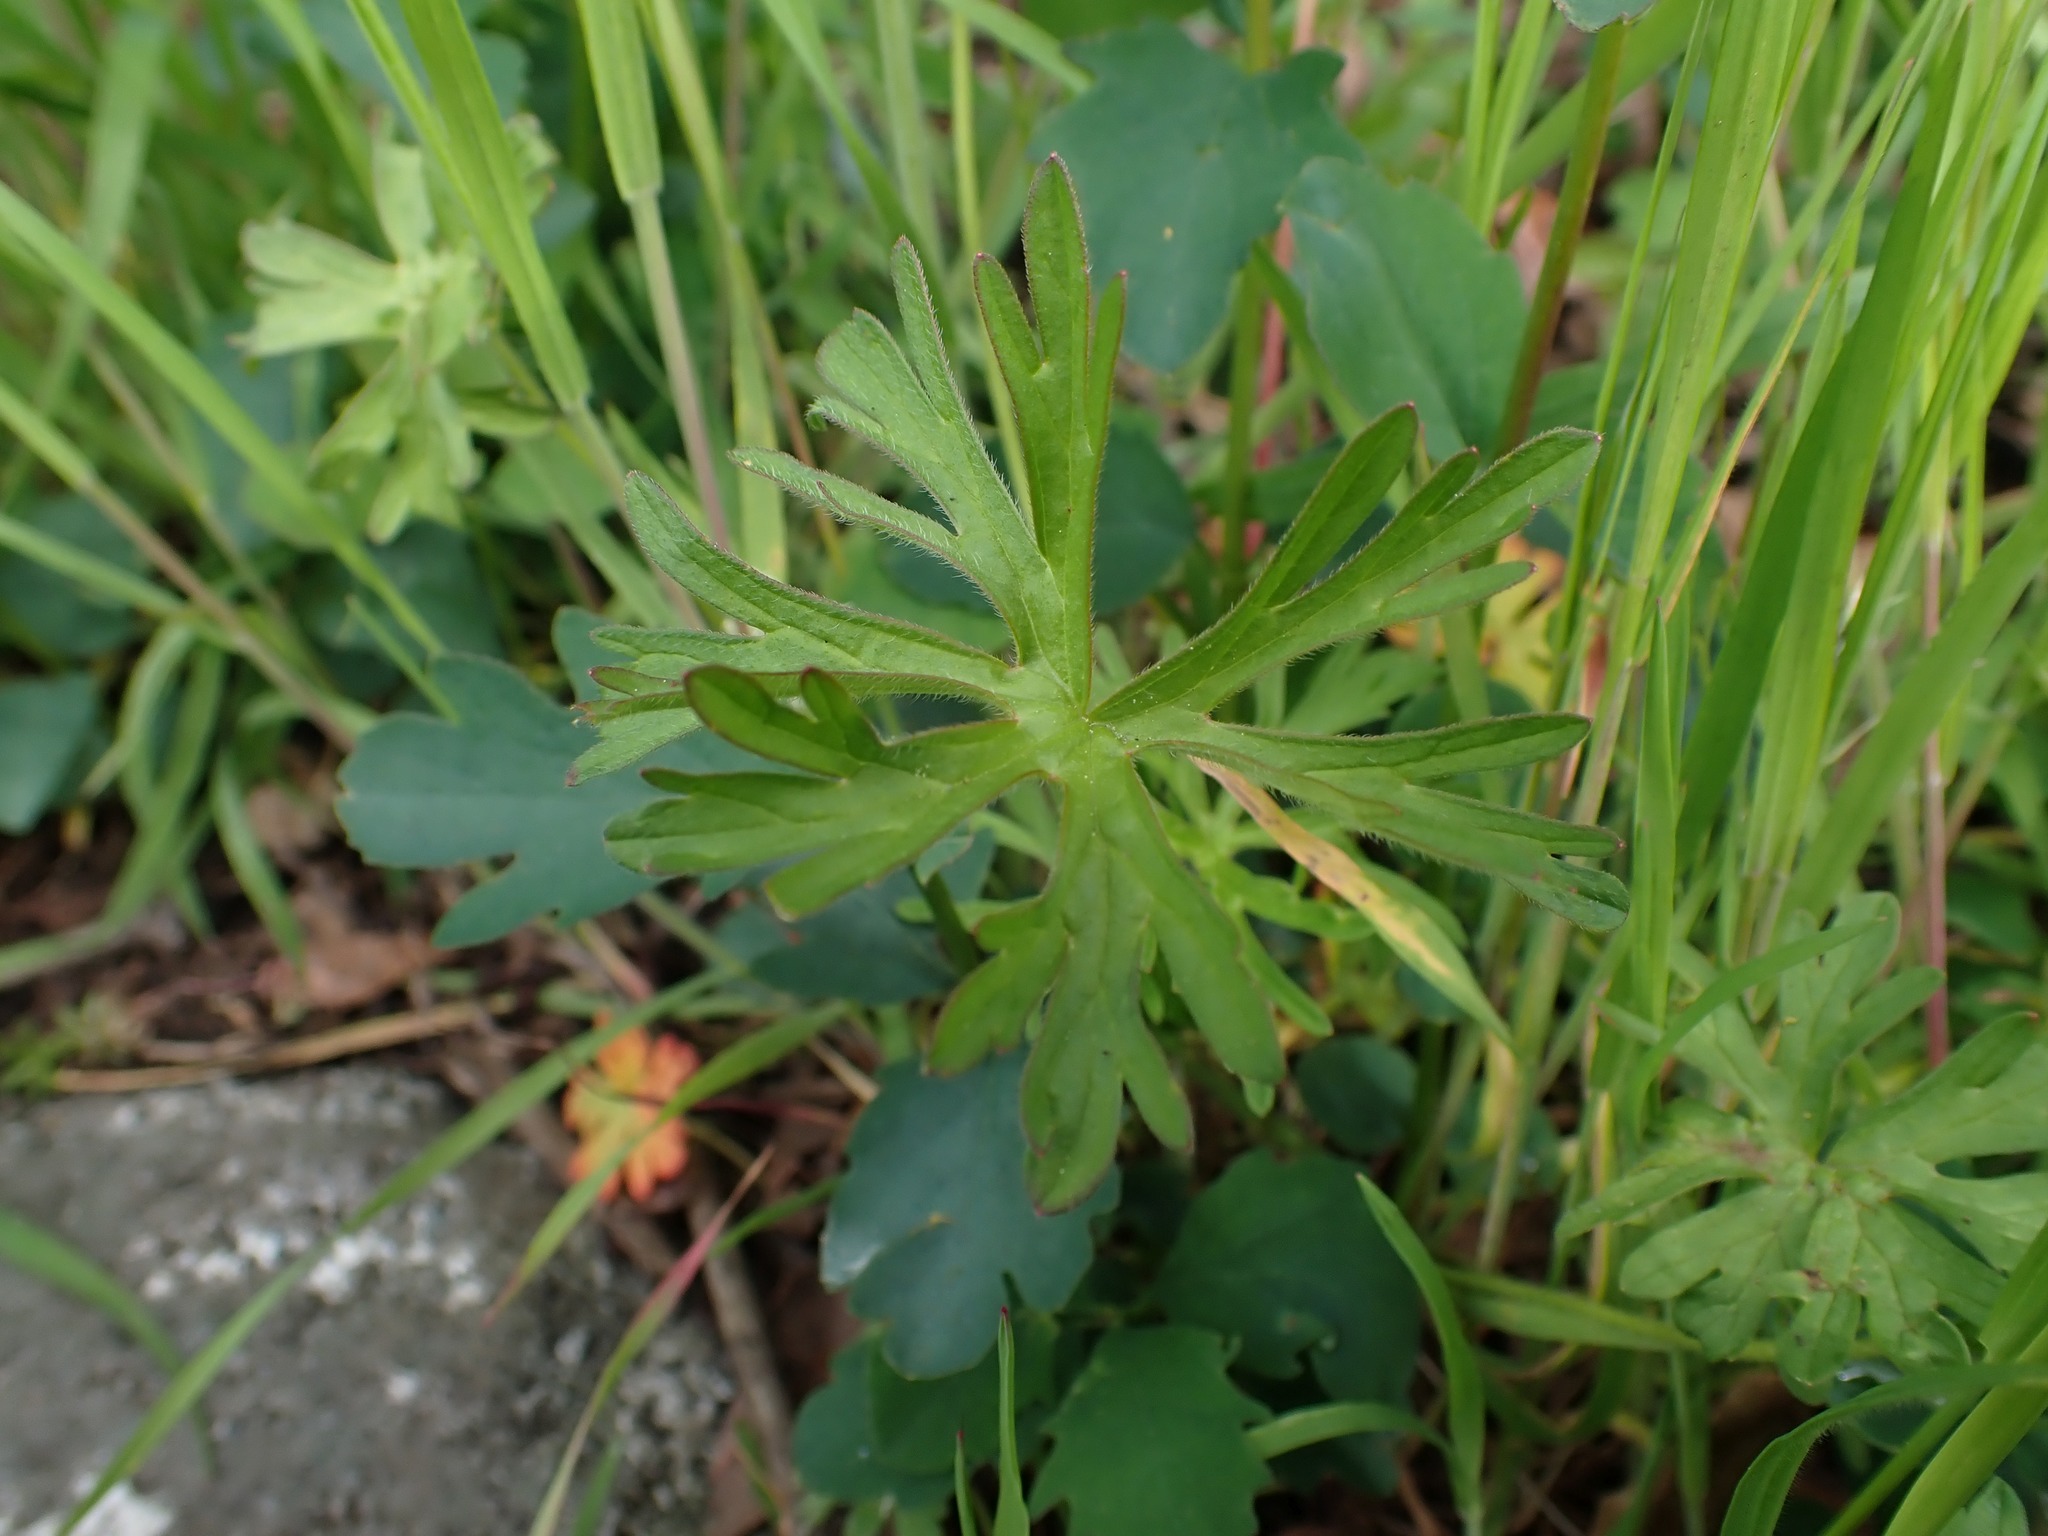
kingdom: Plantae
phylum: Tracheophyta
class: Magnoliopsida
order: Geraniales
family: Geraniaceae
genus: Geranium
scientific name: Geranium dissectum
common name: Cut-leaved crane's-bill
